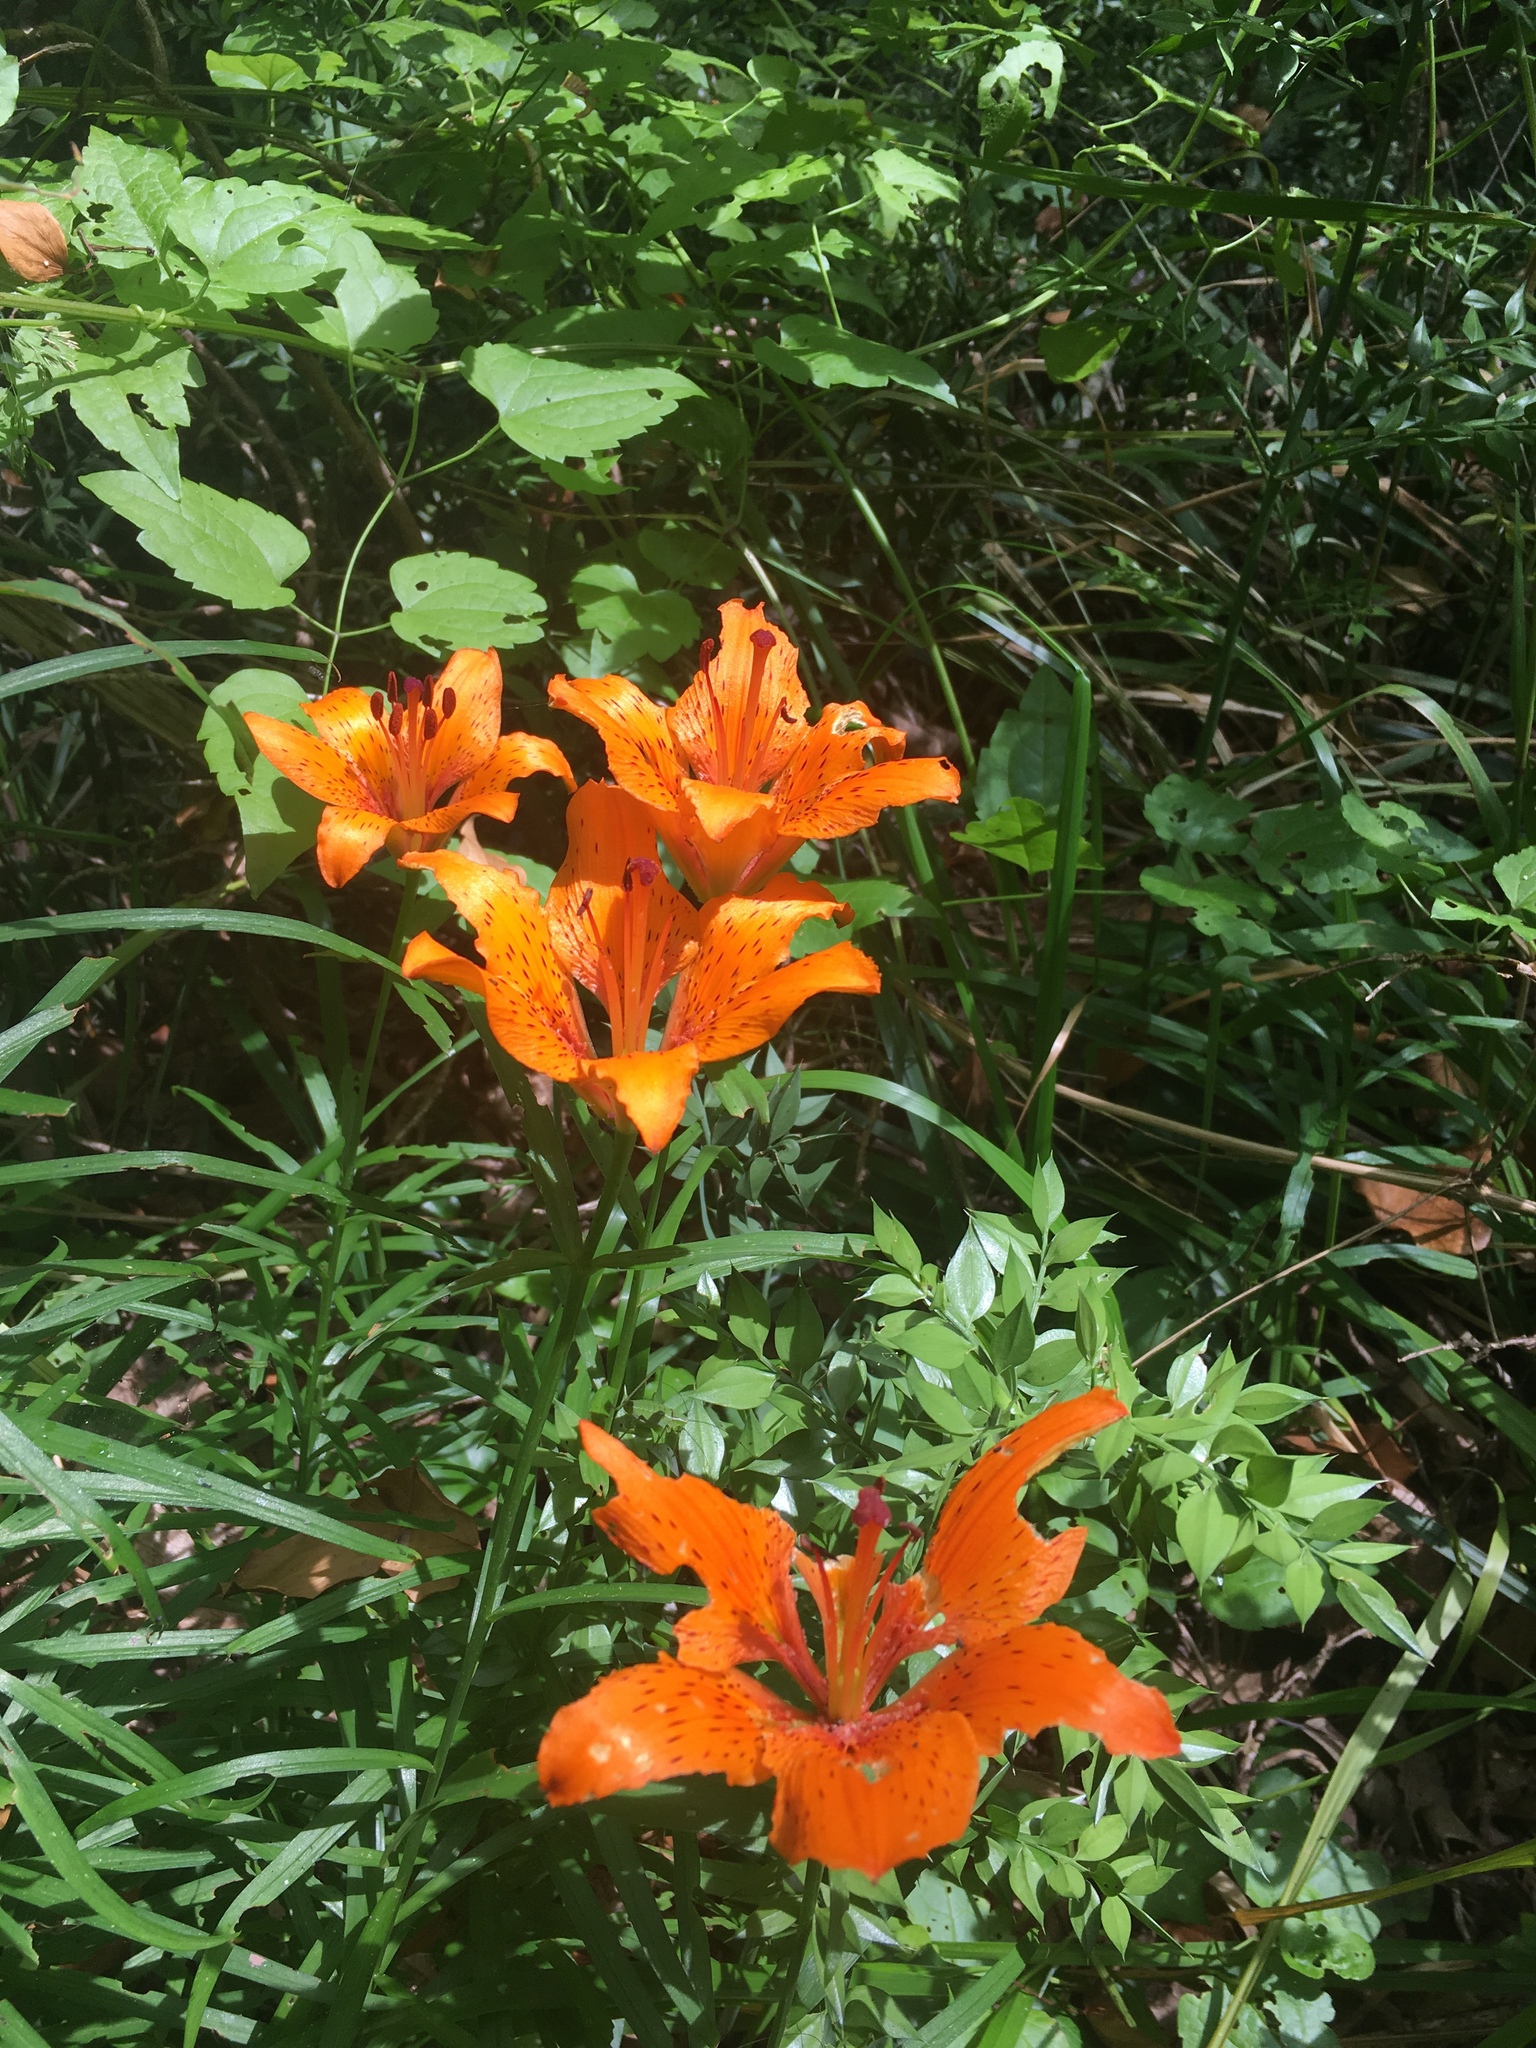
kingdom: Plantae
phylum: Tracheophyta
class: Liliopsida
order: Liliales
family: Liliaceae
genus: Lilium
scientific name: Lilium bulbiferum
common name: Orange lily
